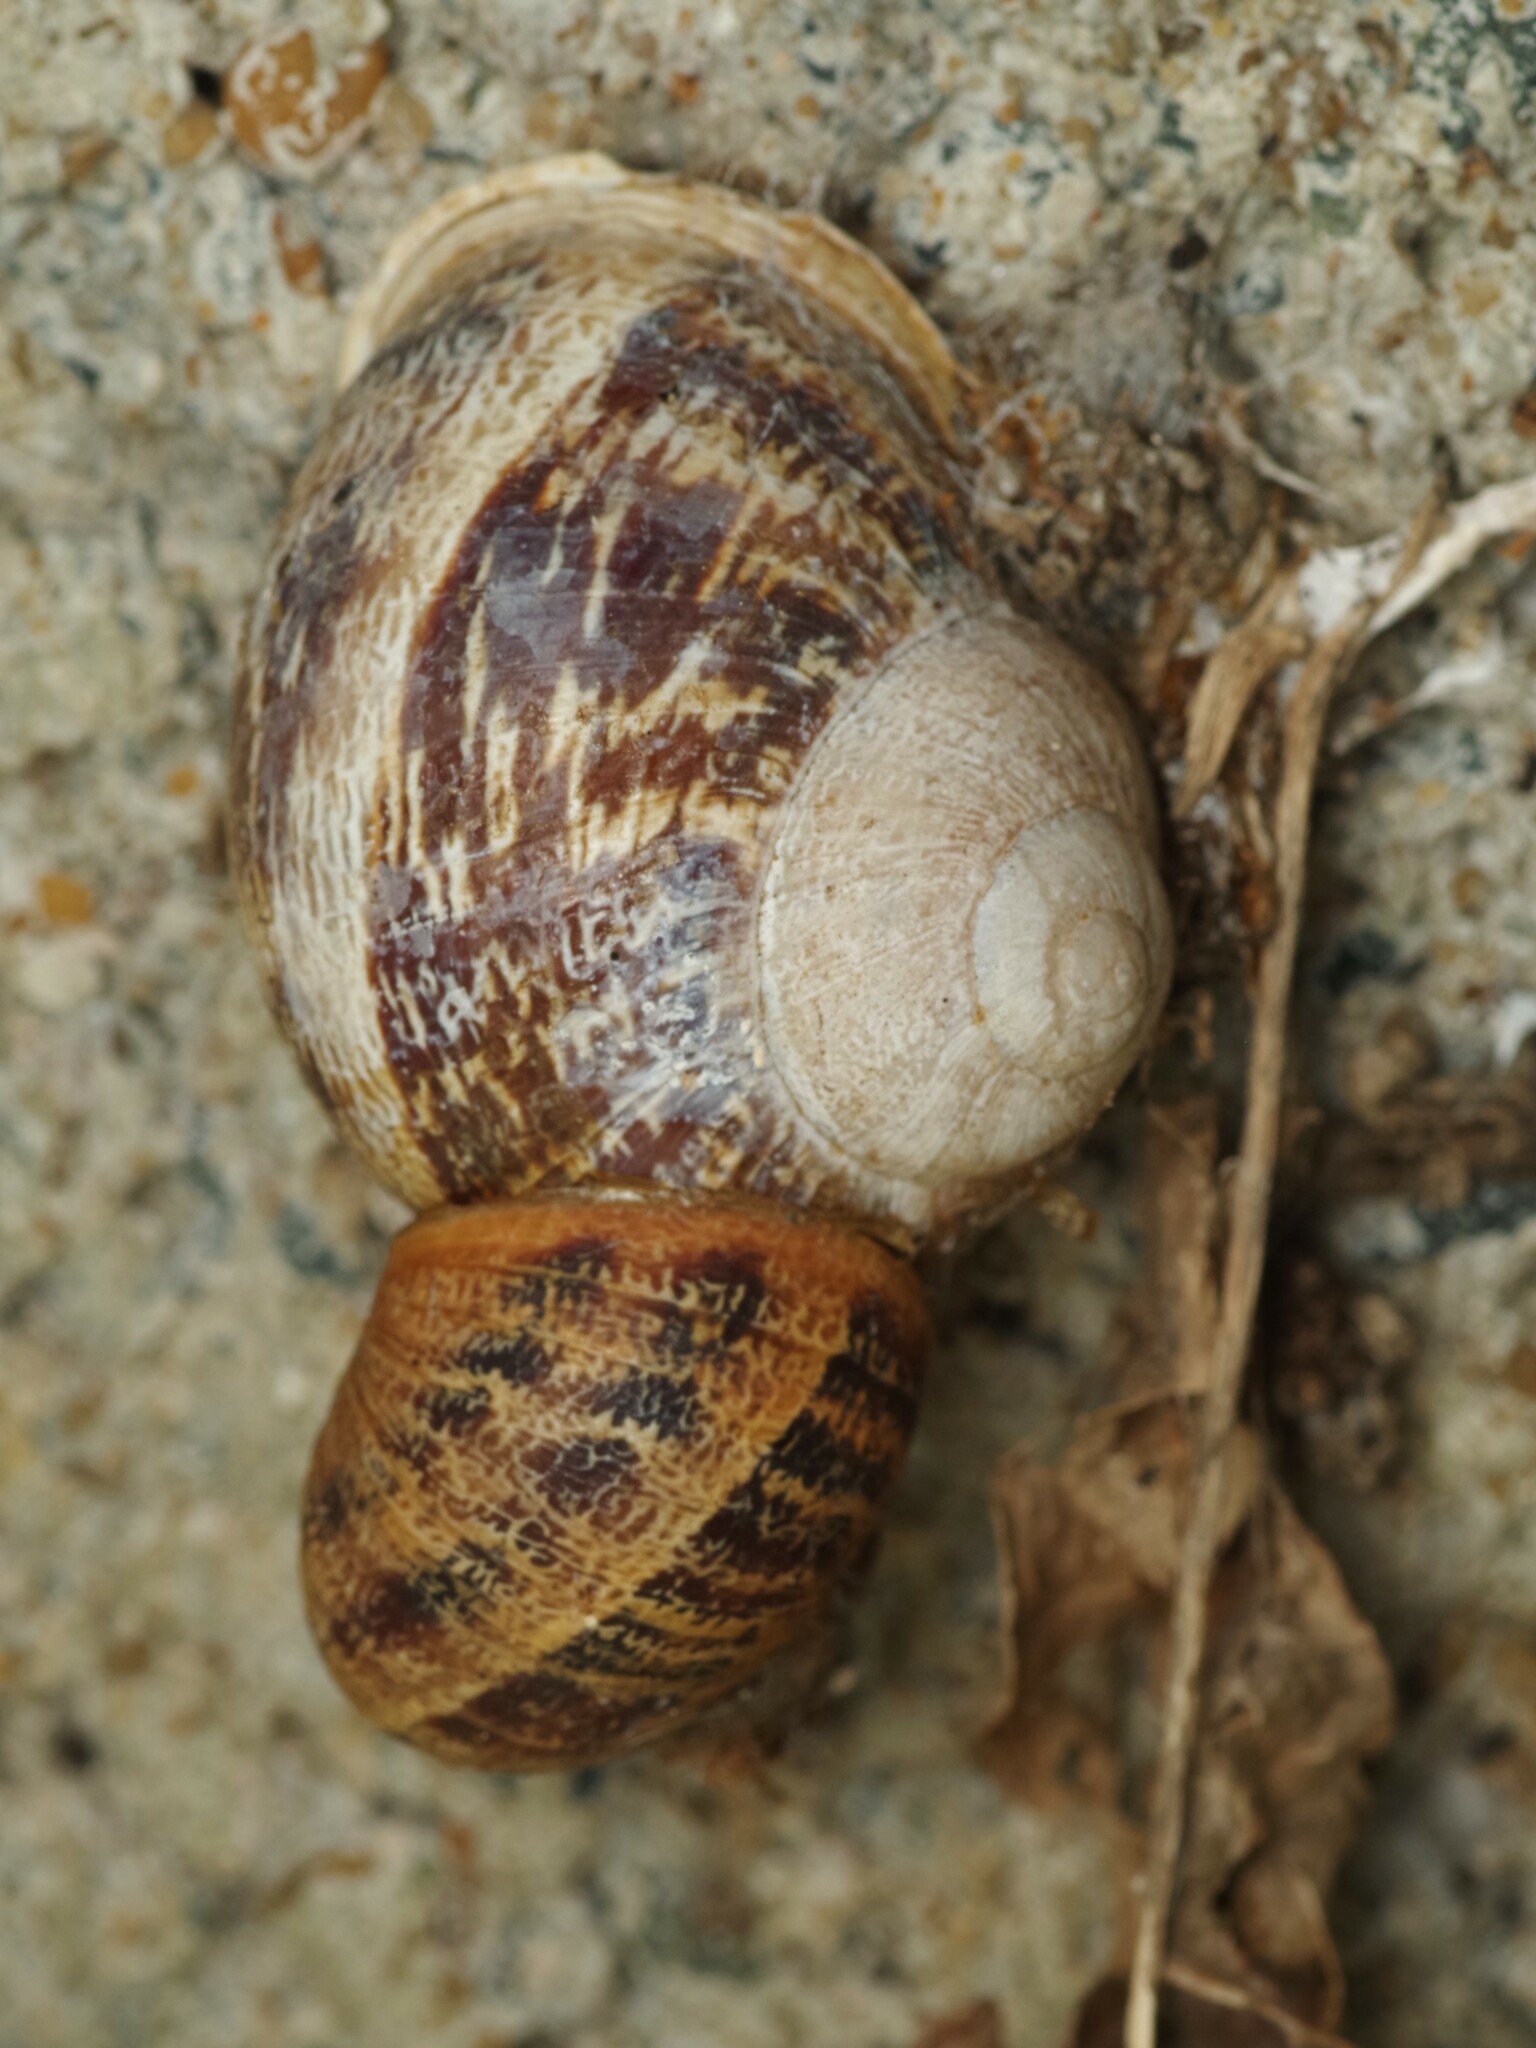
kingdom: Animalia
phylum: Mollusca
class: Gastropoda
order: Stylommatophora
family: Helicidae
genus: Cornu
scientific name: Cornu aspersum
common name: Brown garden snail
